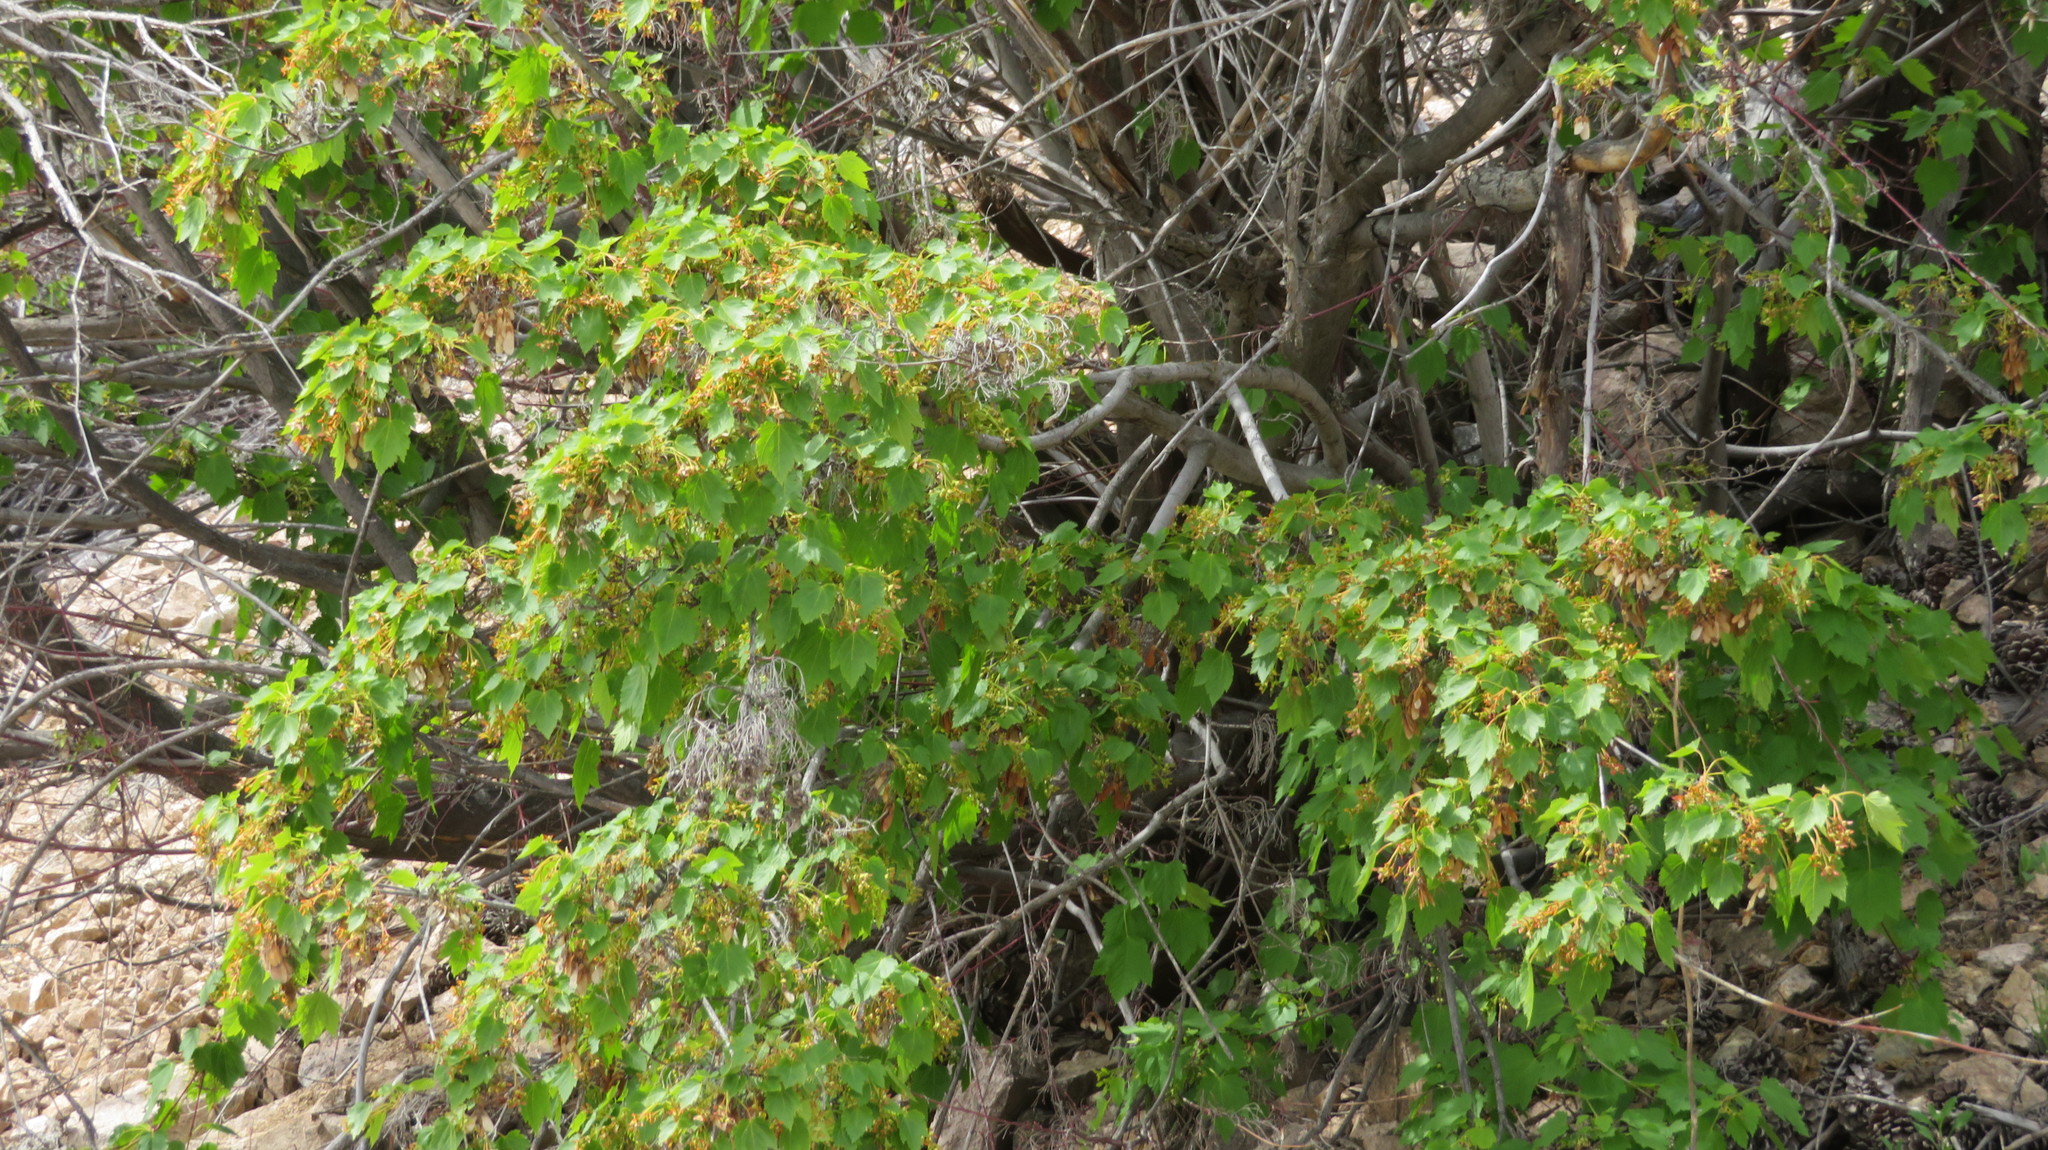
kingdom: Plantae
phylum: Tracheophyta
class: Magnoliopsida
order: Sapindales
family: Sapindaceae
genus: Acer
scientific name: Acer glabrum
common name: Rocky mountain maple
